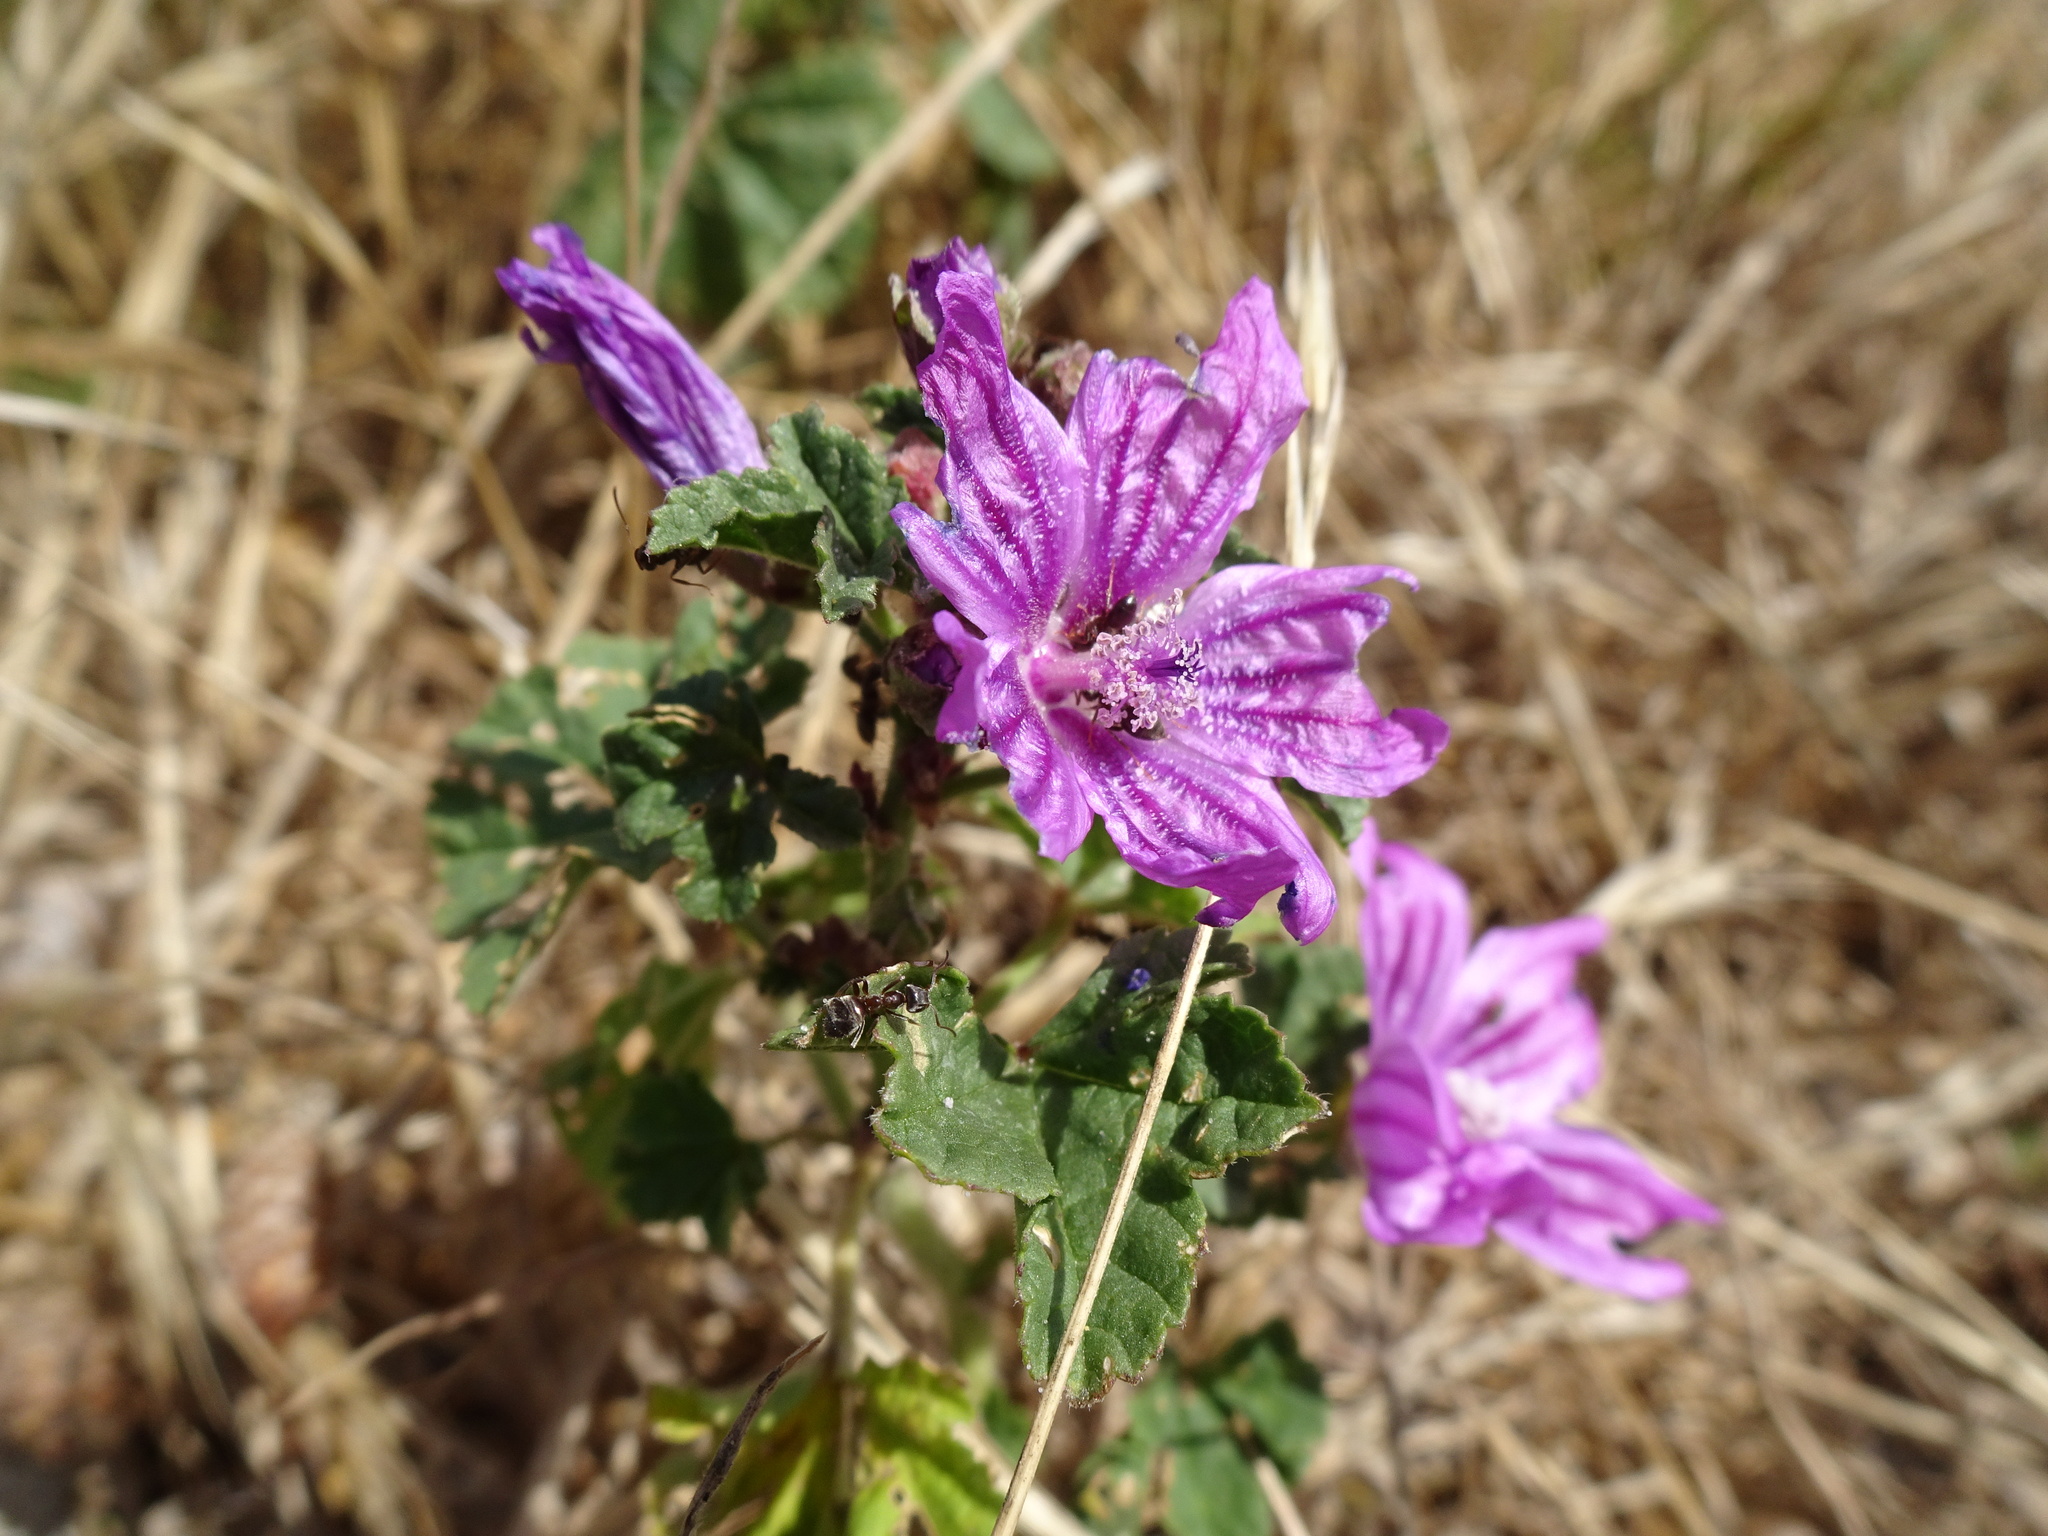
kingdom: Plantae
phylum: Tracheophyta
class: Magnoliopsida
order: Malvales
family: Malvaceae
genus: Malva
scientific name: Malva sylvestris
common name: Common mallow
